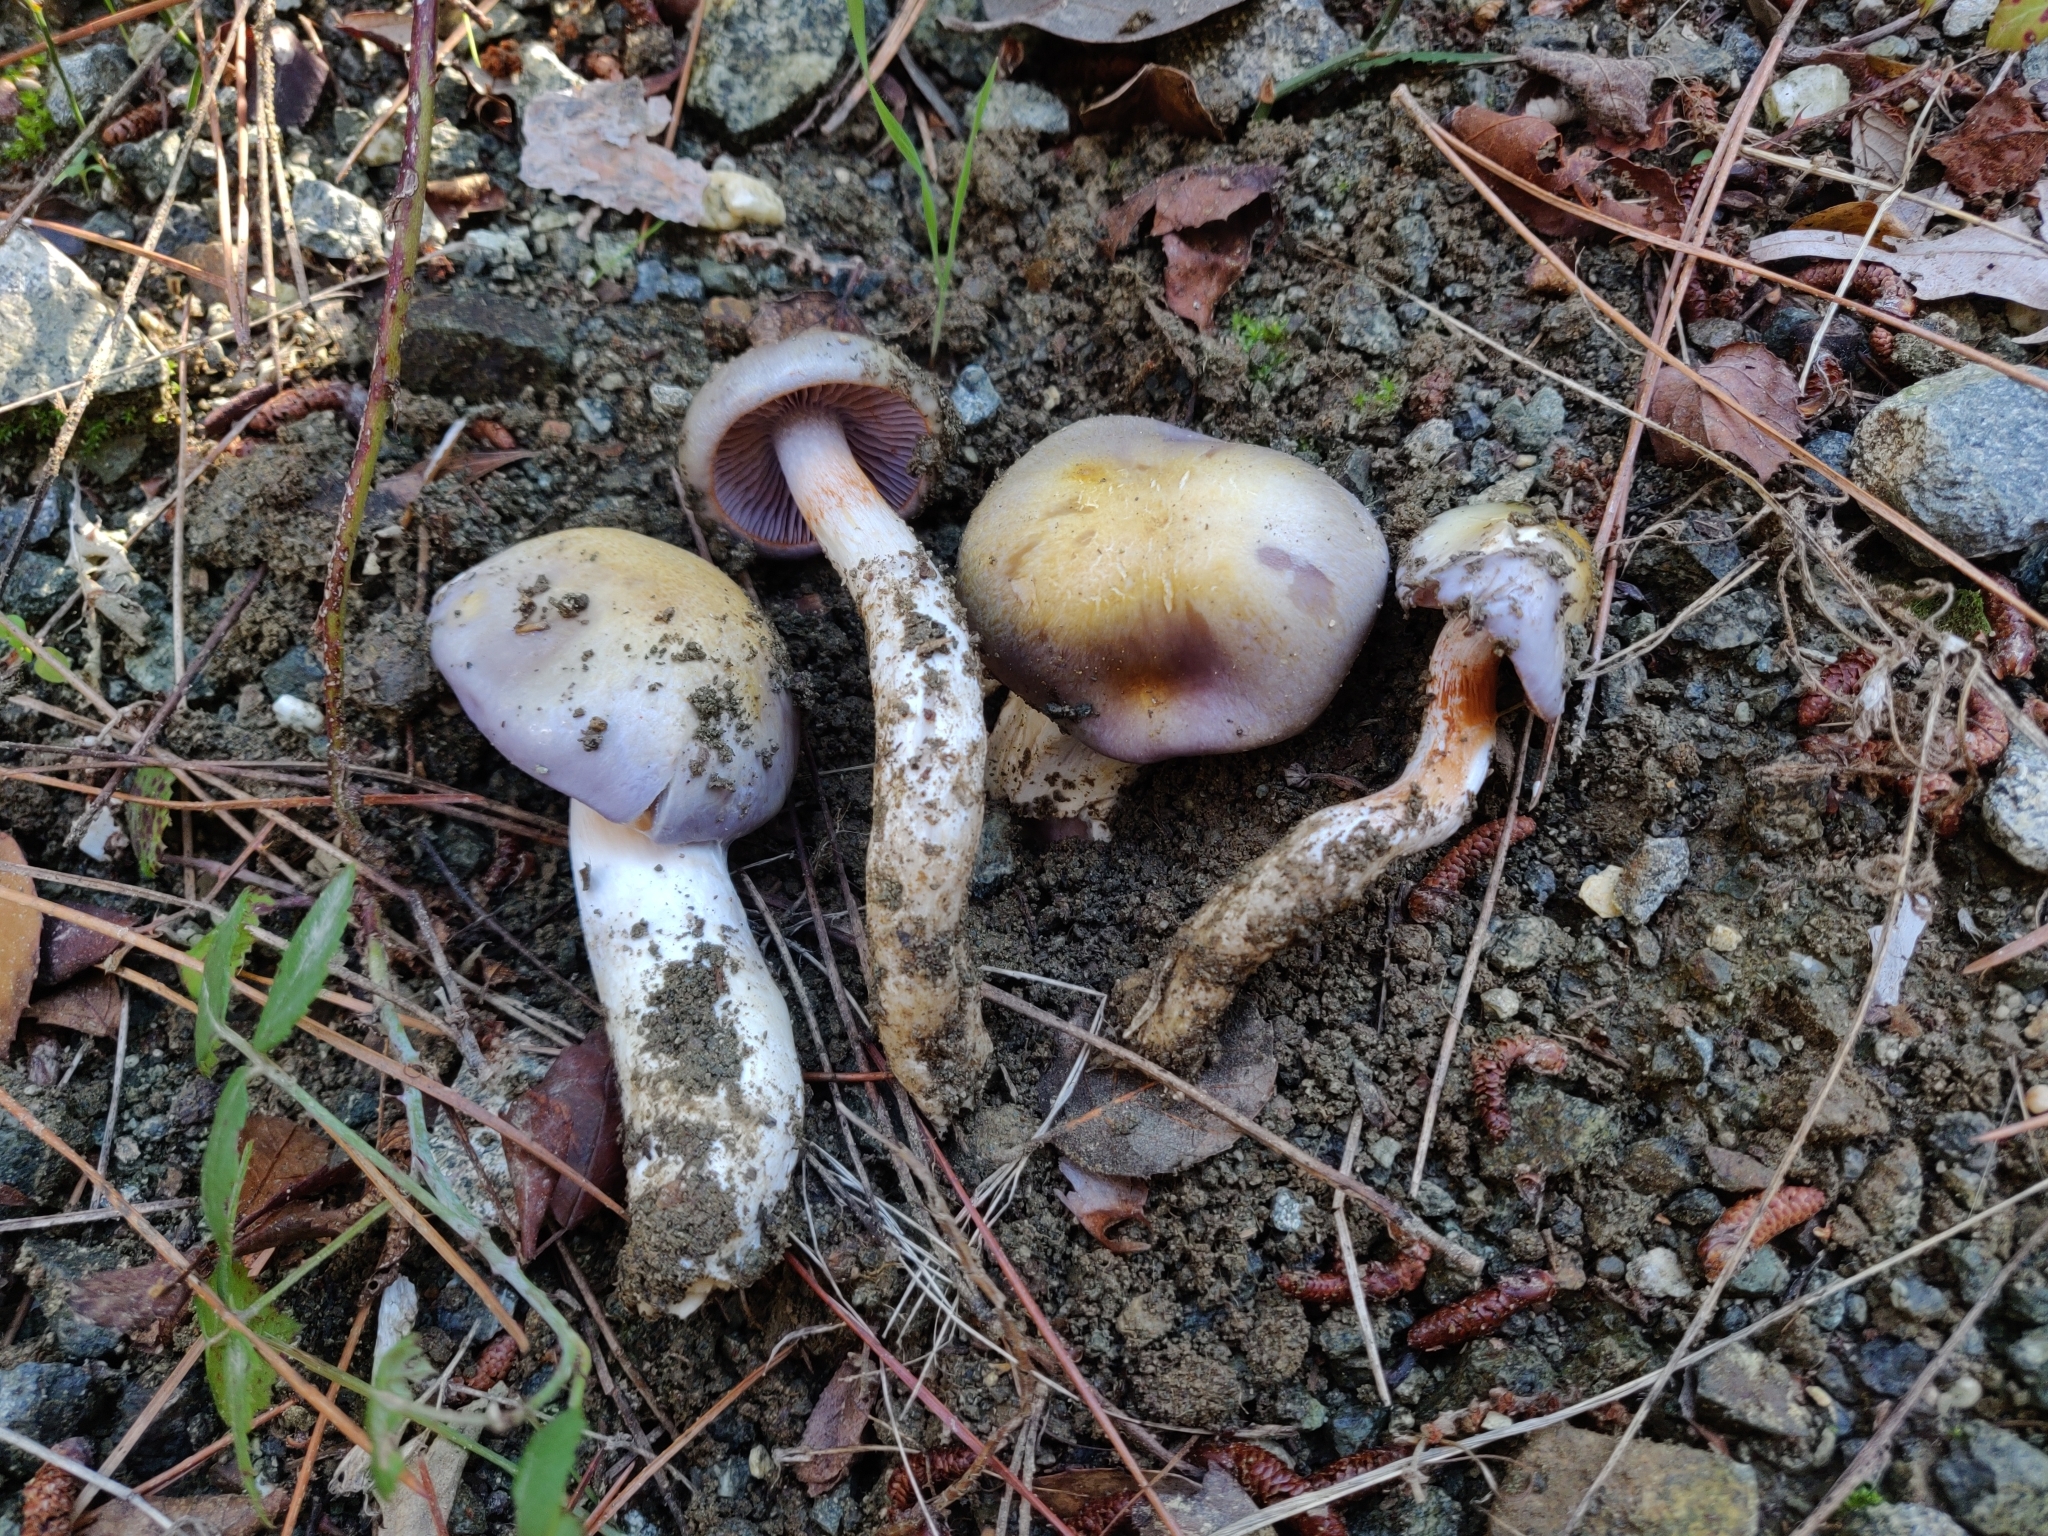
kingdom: Fungi
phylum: Basidiomycota
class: Agaricomycetes
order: Agaricales
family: Cortinariaceae
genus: Cortinarius
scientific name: Cortinarius dryosalor
